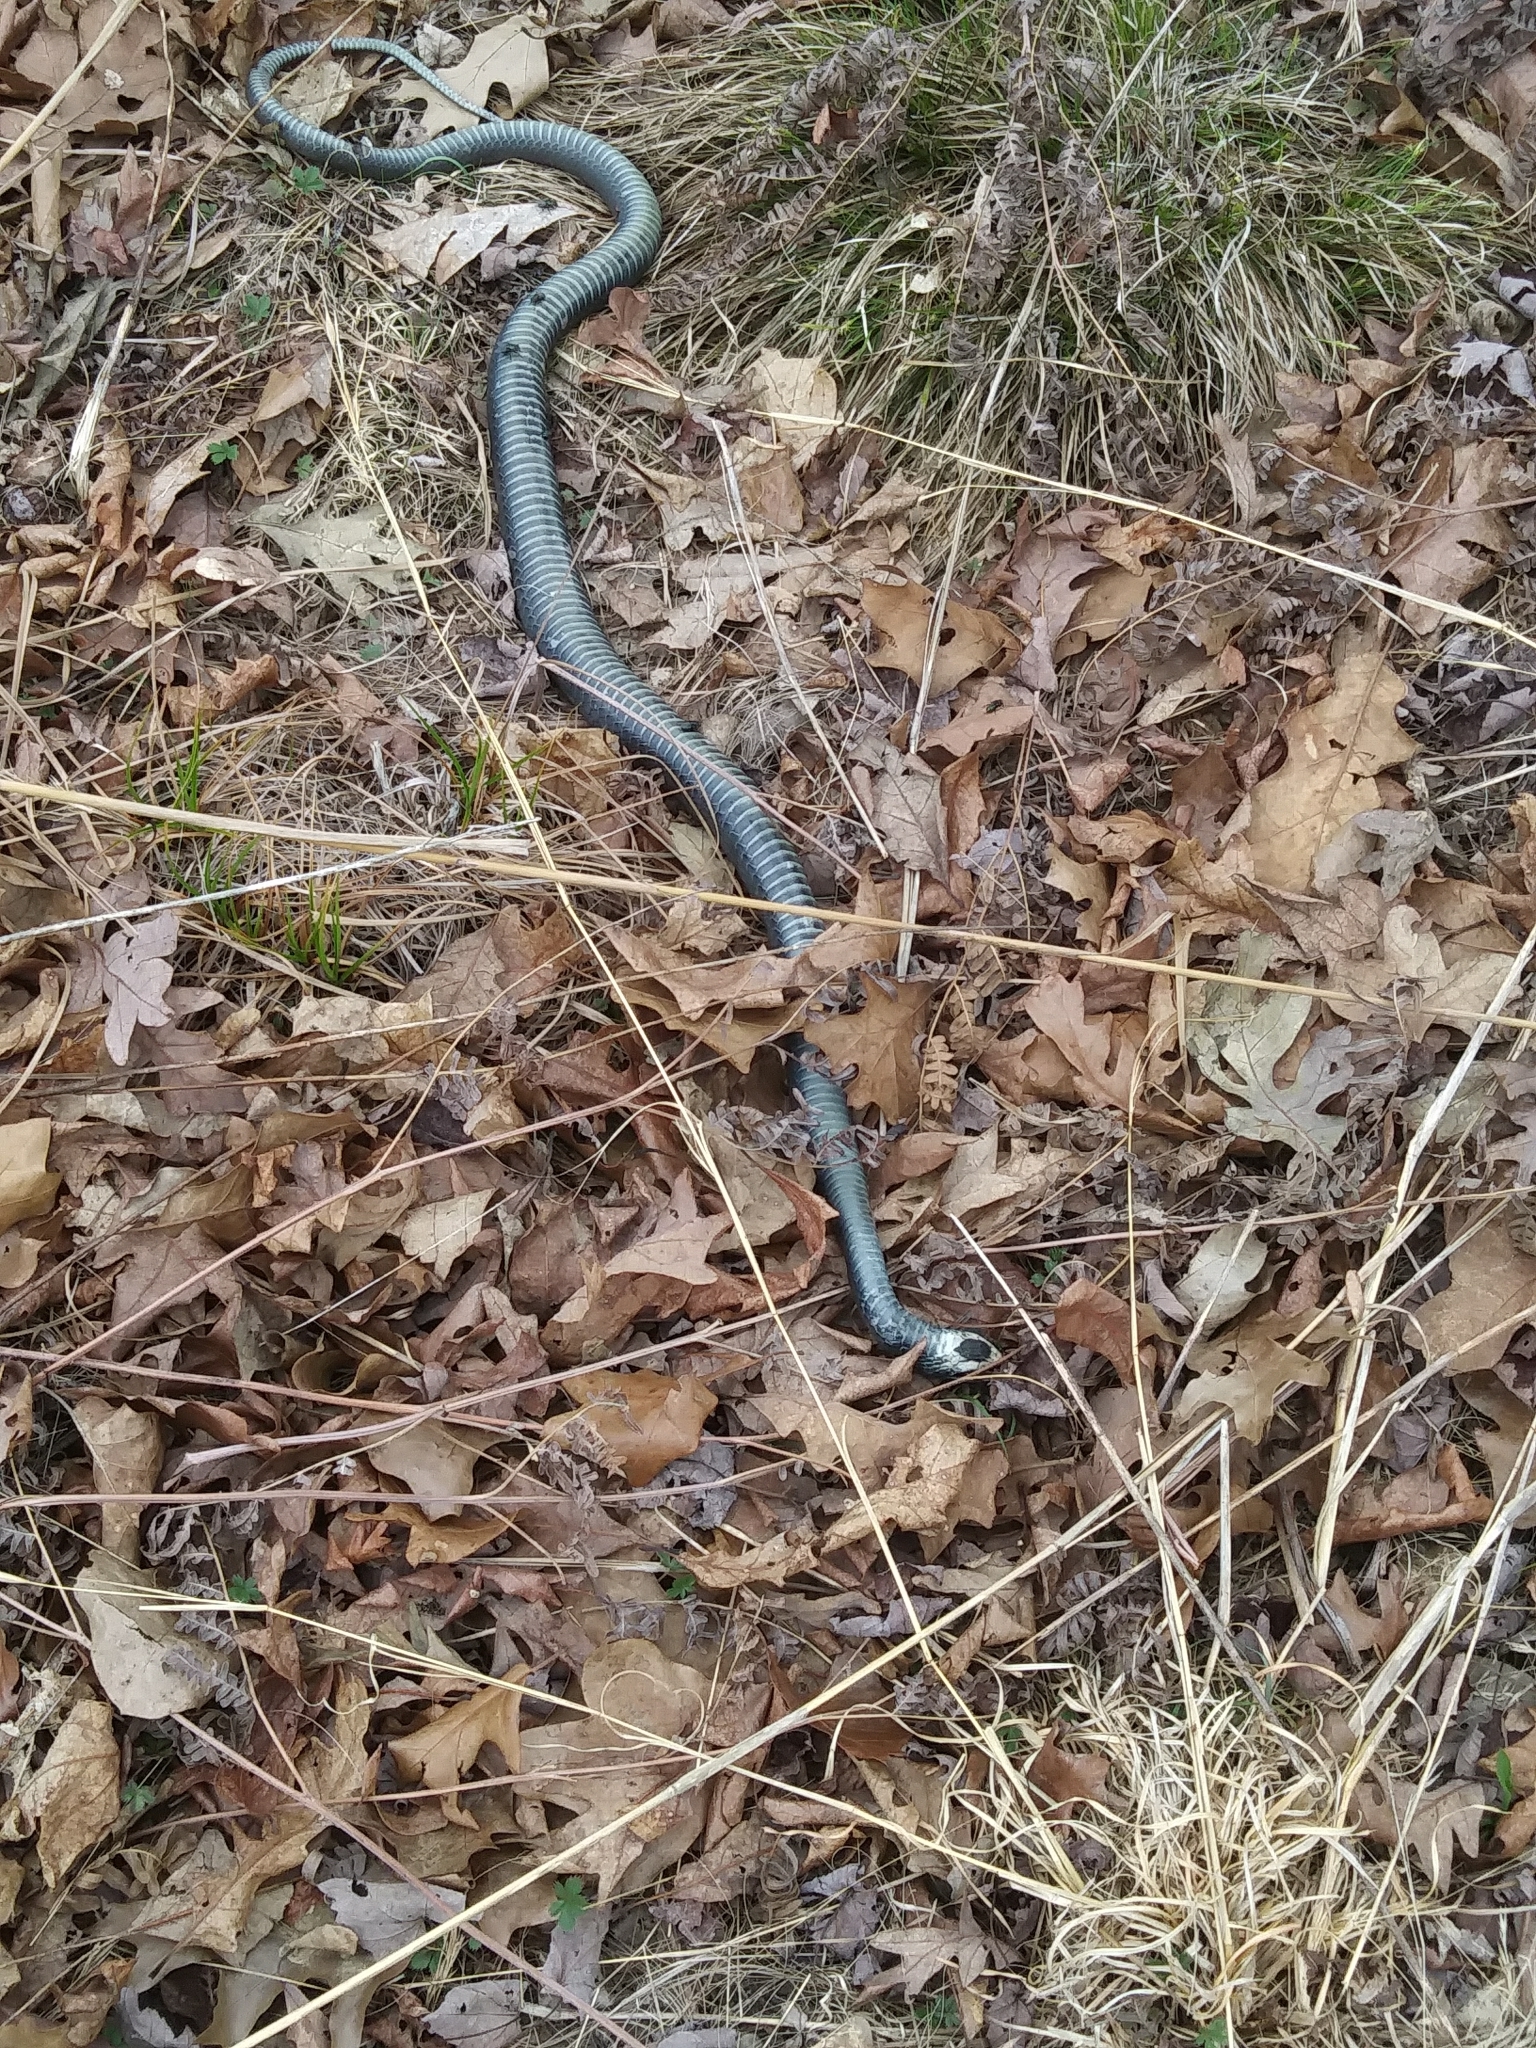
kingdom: Animalia
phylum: Chordata
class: Squamata
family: Colubridae
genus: Coluber
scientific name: Coluber constrictor
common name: Eastern racer
